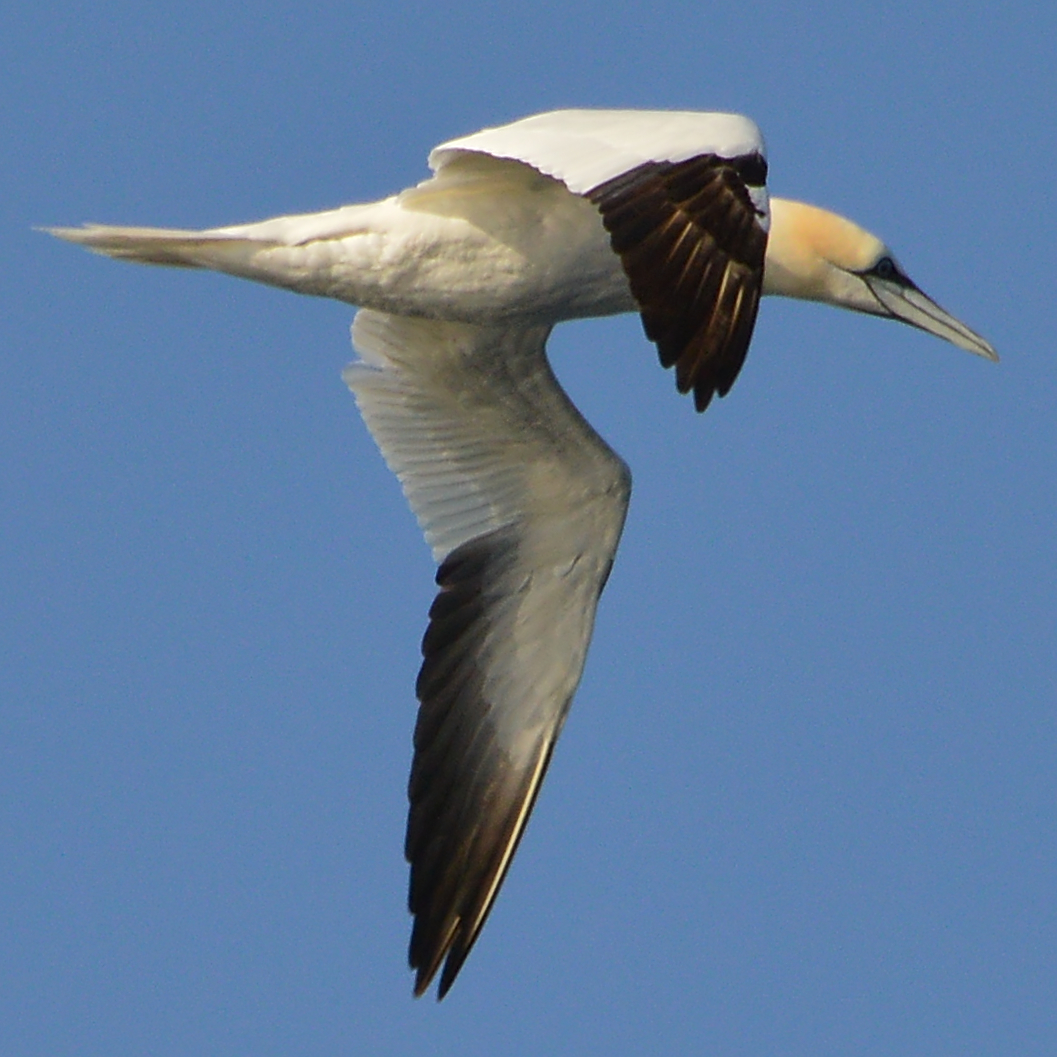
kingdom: Animalia
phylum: Chordata
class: Aves
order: Suliformes
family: Sulidae
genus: Morus
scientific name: Morus bassanus
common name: Northern gannet
